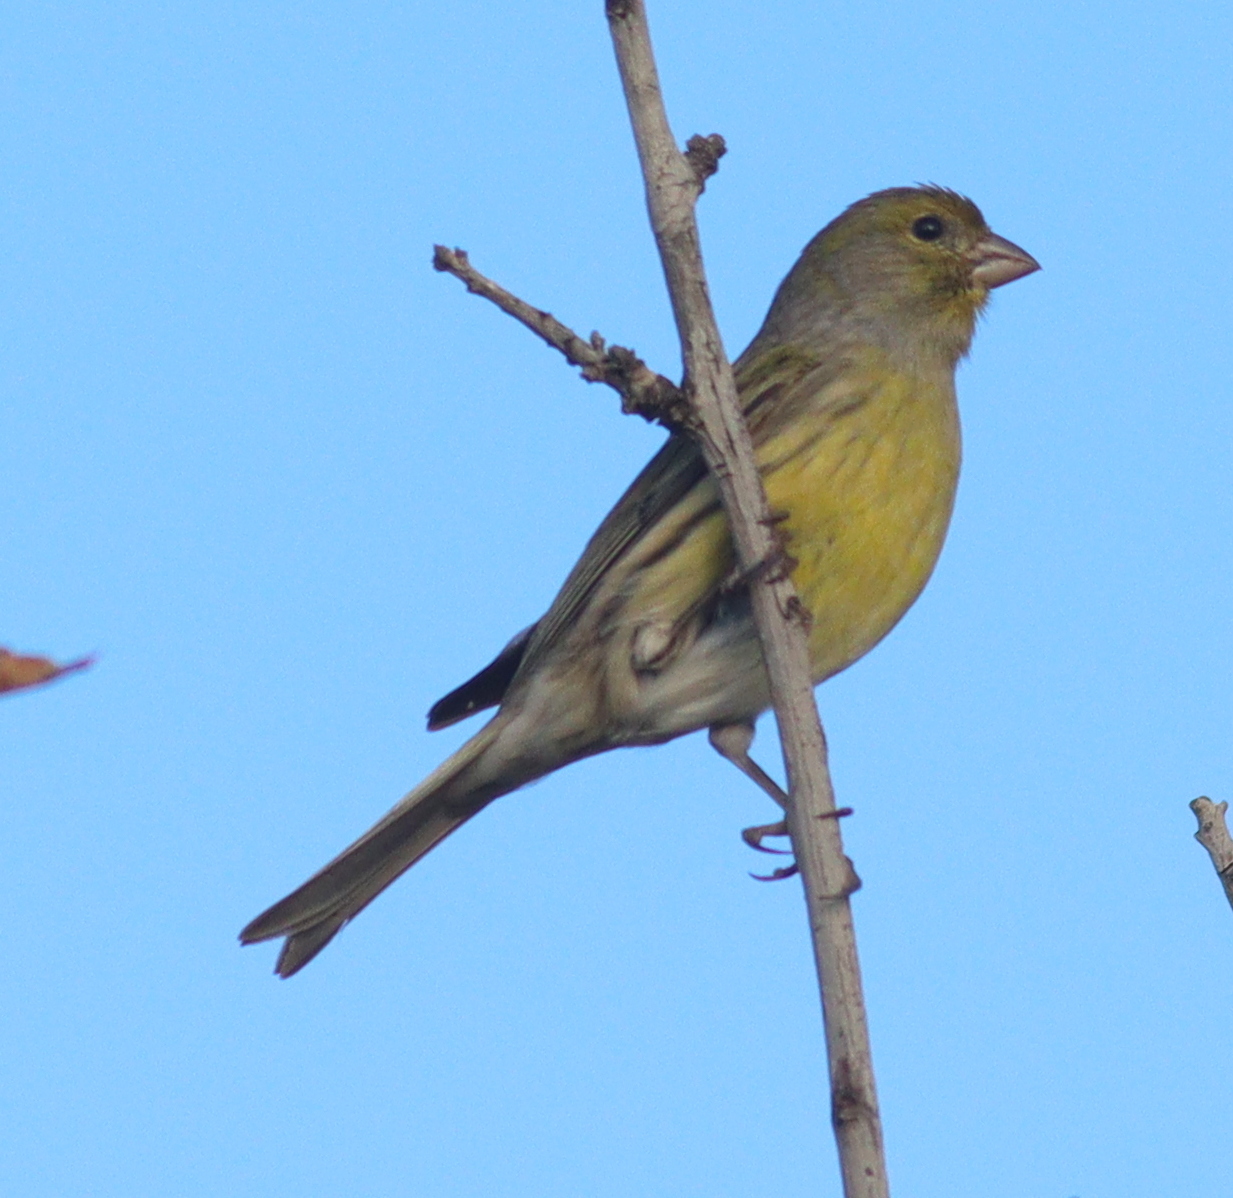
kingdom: Animalia
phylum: Chordata
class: Aves
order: Passeriformes
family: Fringillidae
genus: Serinus
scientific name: Serinus canaria
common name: Atlantic canary
